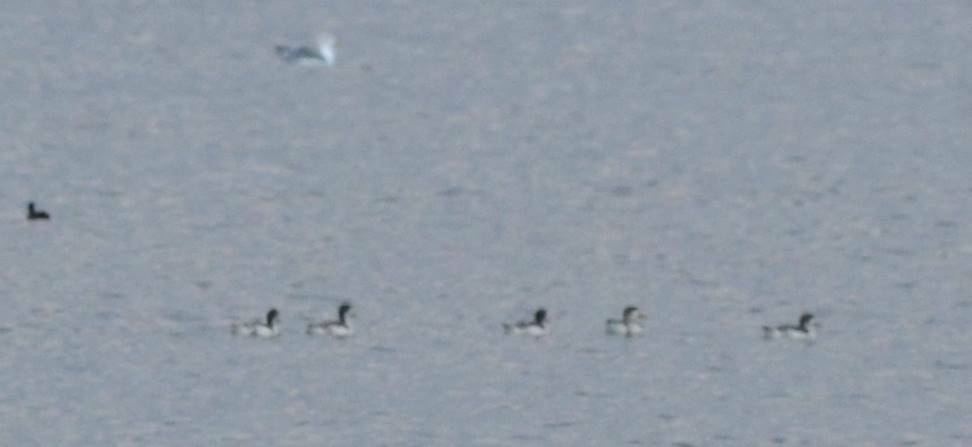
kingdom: Animalia
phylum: Chordata
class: Aves
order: Anseriformes
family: Anatidae
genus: Tadorna
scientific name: Tadorna tadorna
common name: Common shelduck
